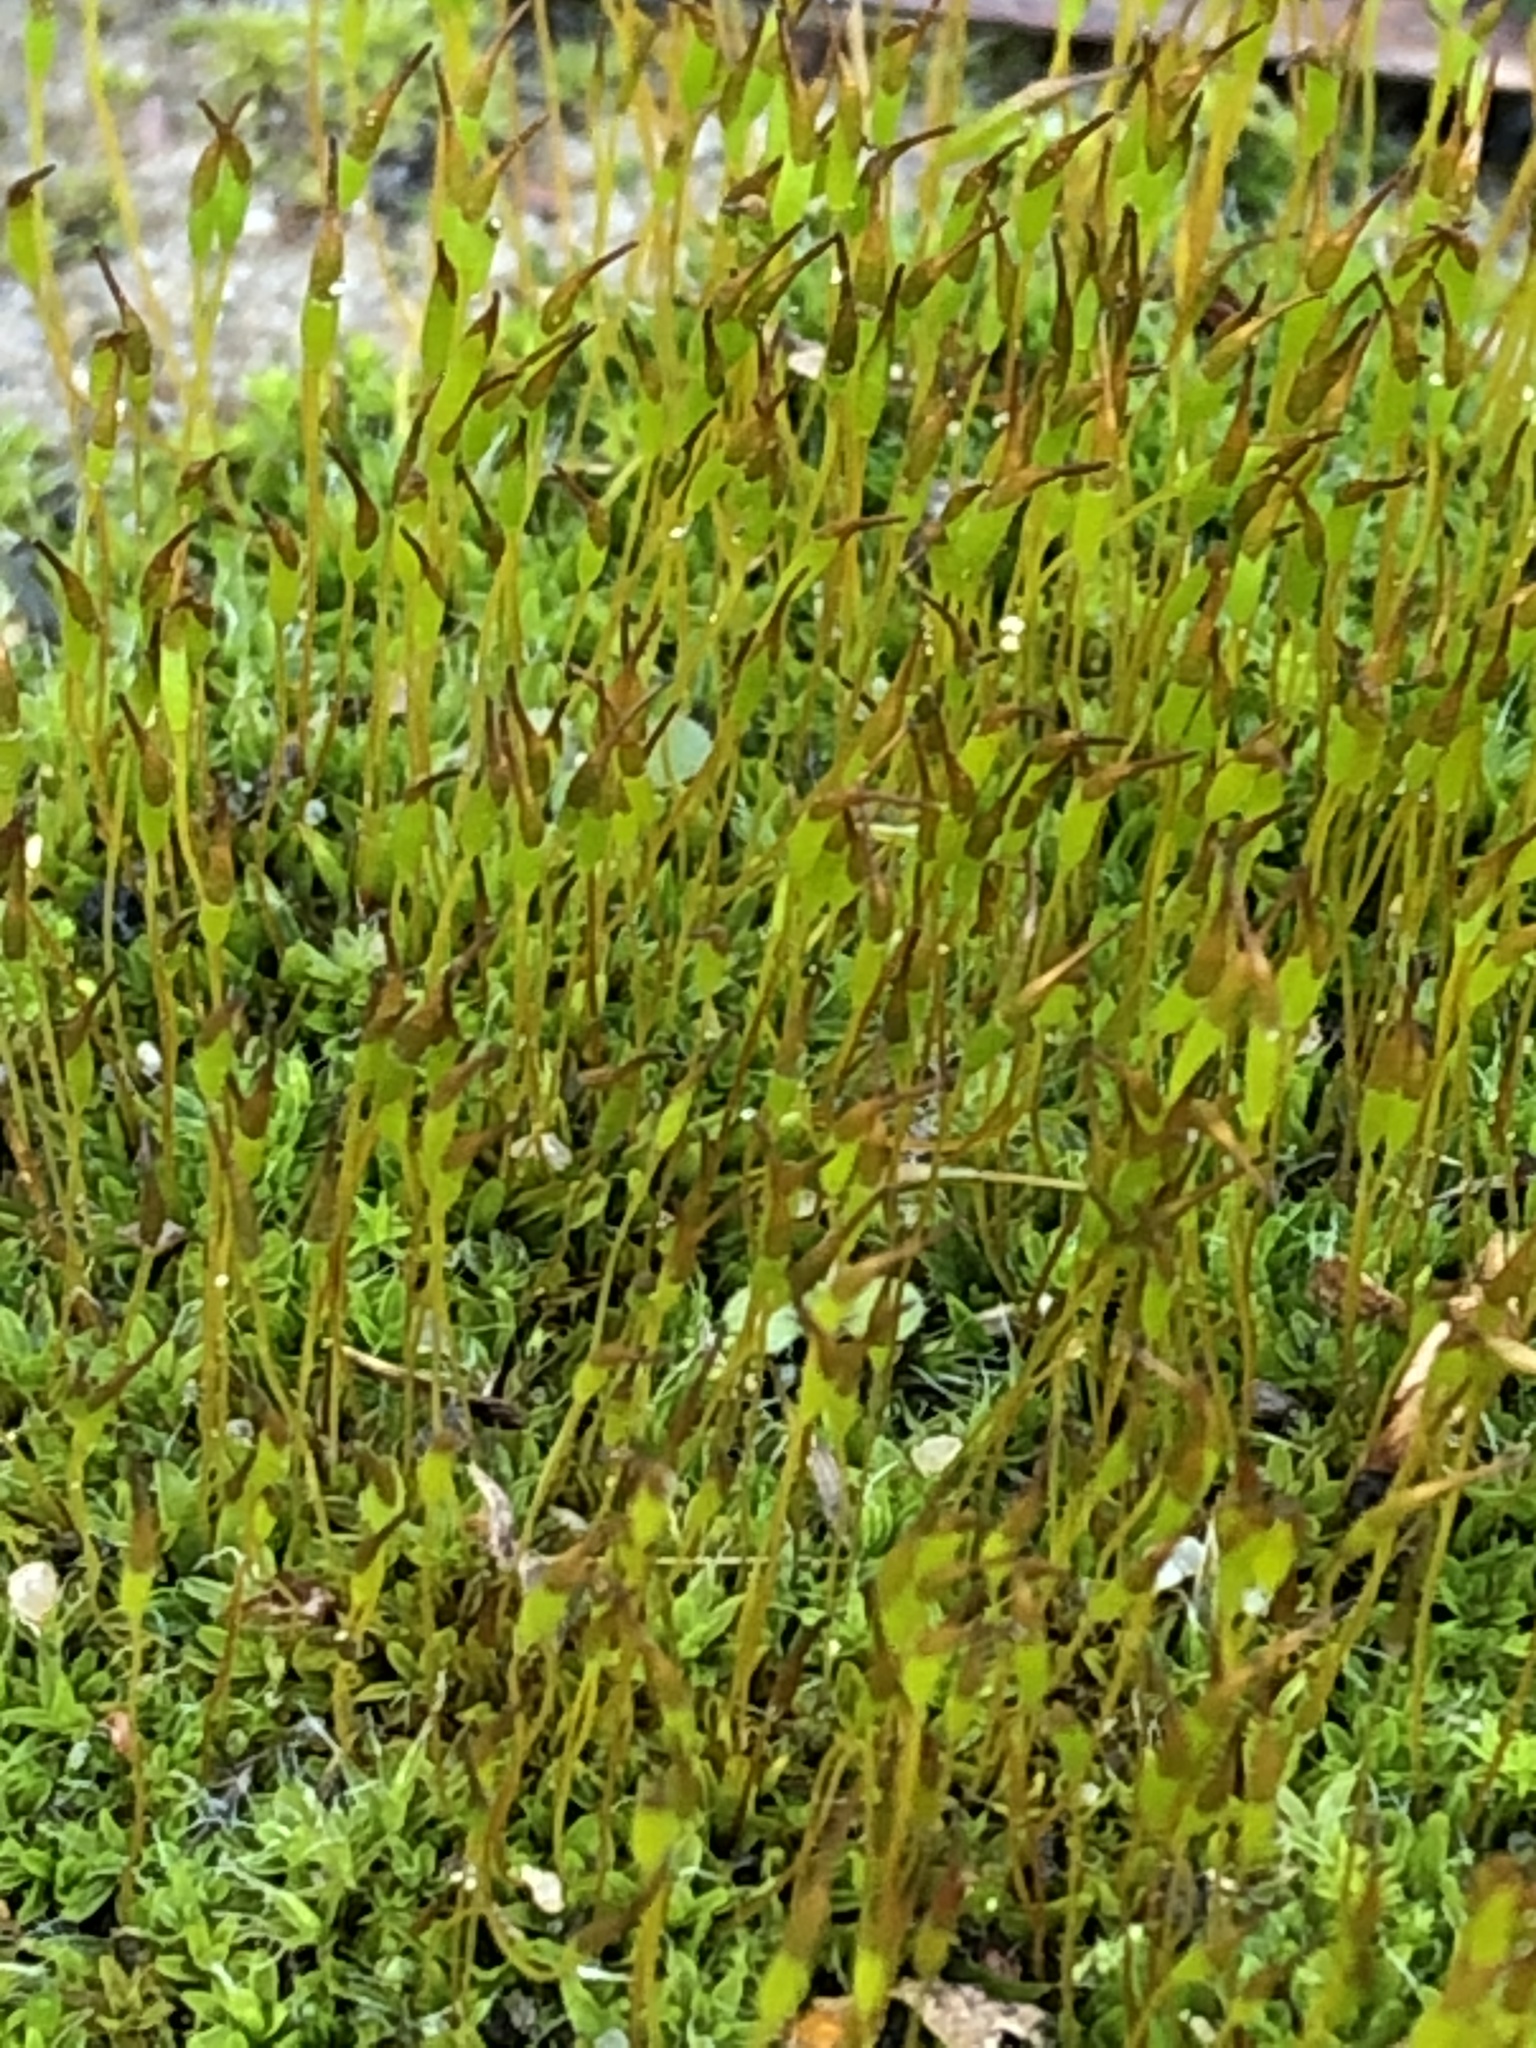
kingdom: Plantae
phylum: Bryophyta
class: Bryopsida
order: Pottiales
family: Pottiaceae
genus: Tortula
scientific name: Tortula muralis
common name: Wall screw-moss
